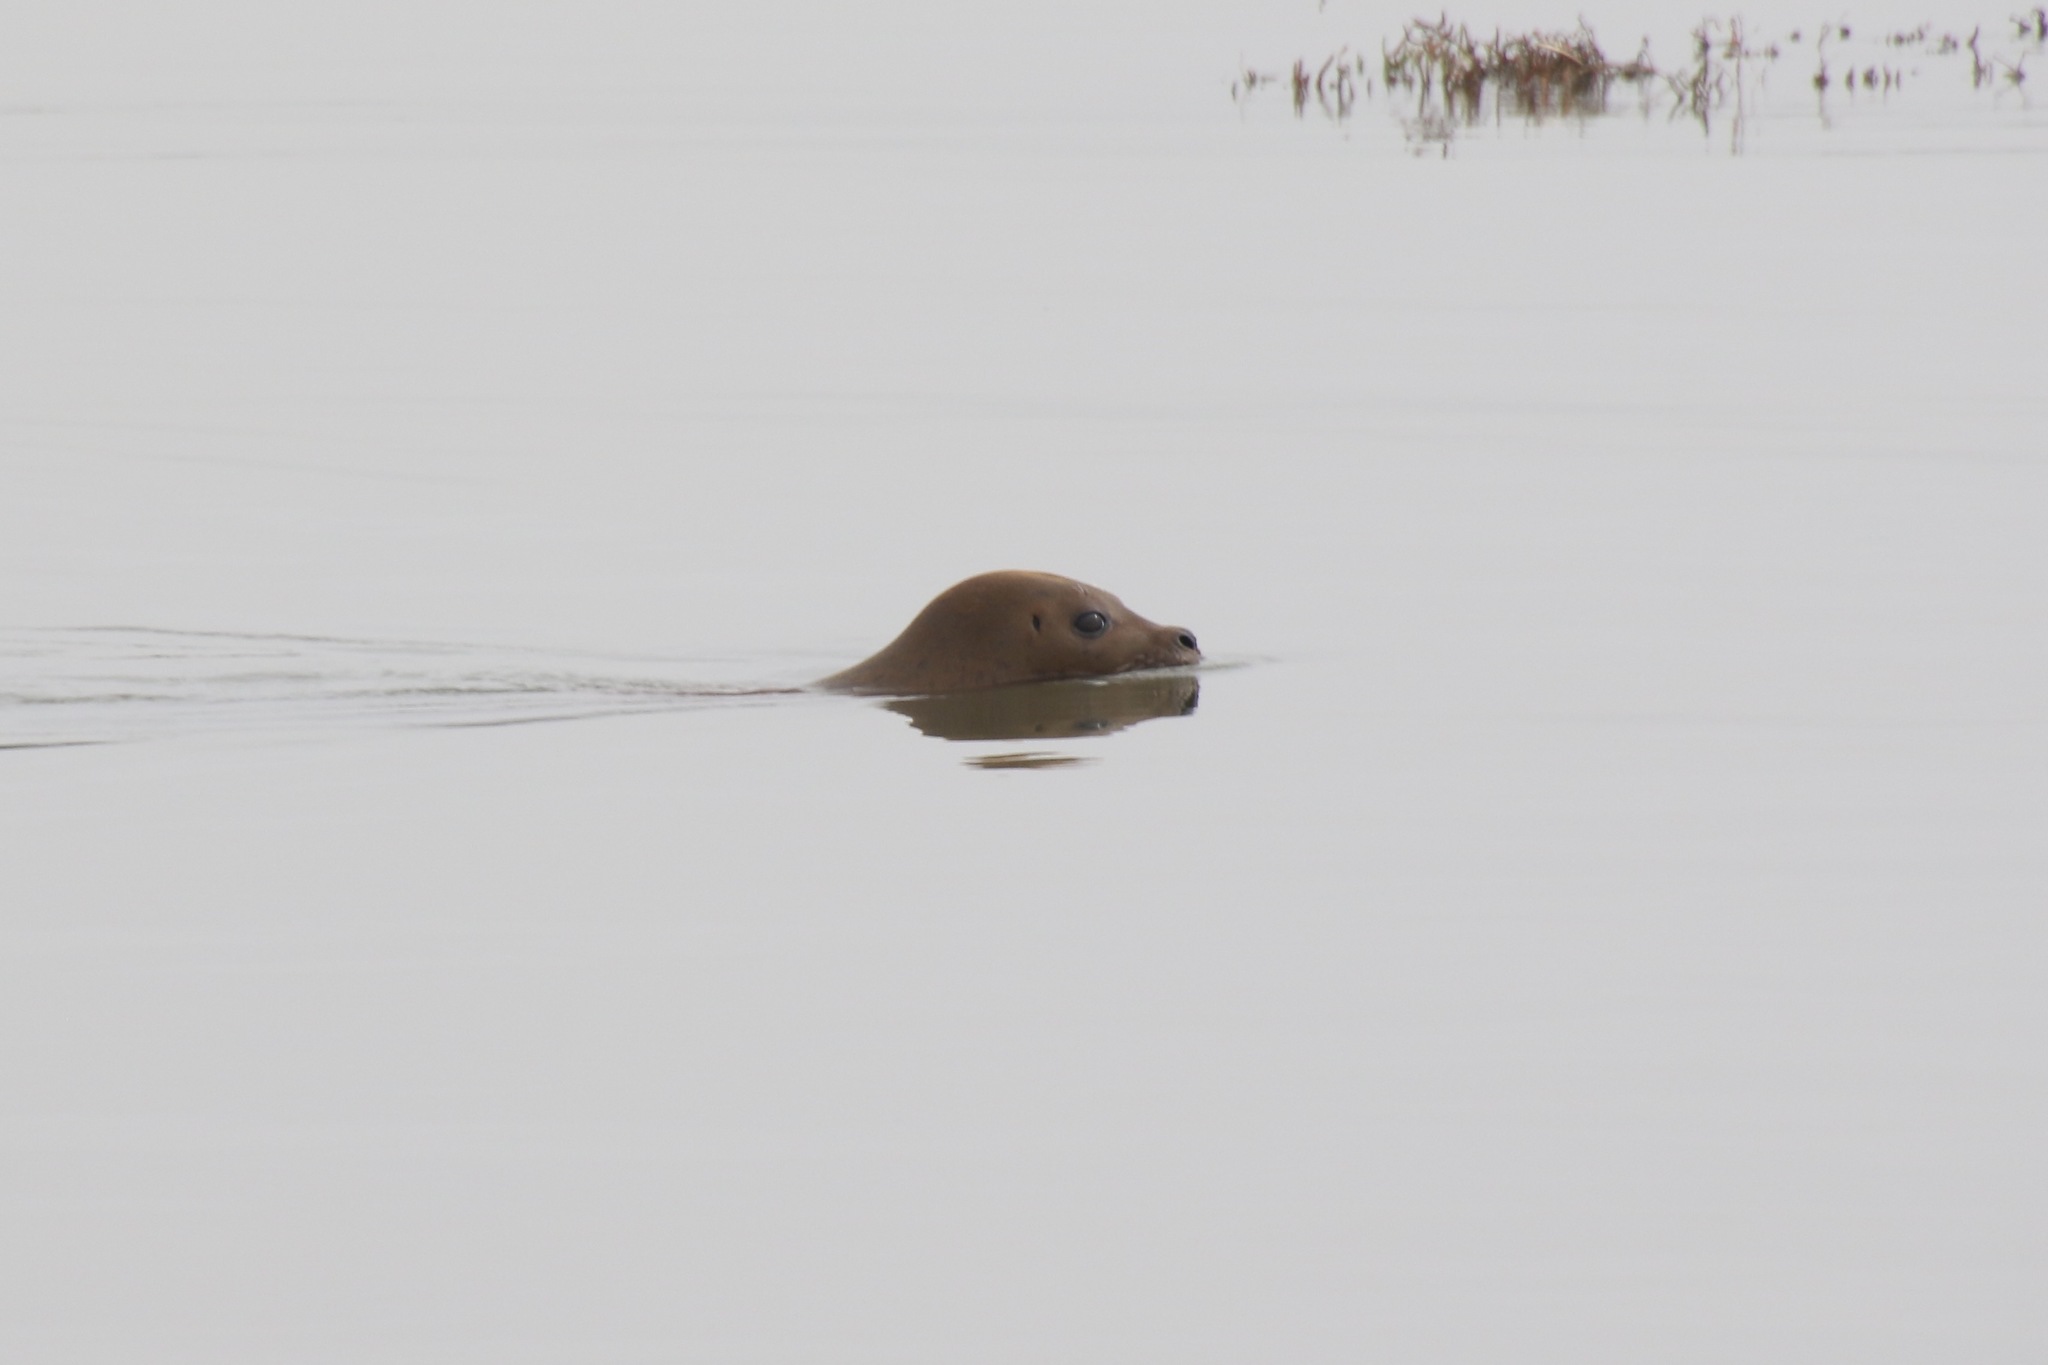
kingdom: Animalia
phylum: Chordata
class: Mammalia
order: Carnivora
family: Phocidae
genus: Phoca
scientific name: Phoca vitulina
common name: Harbor seal
